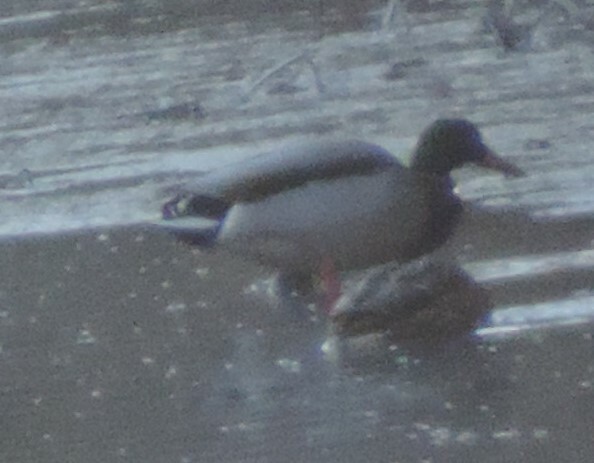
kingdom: Animalia
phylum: Chordata
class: Aves
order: Anseriformes
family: Anatidae
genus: Anas
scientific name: Anas platyrhynchos
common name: Mallard
